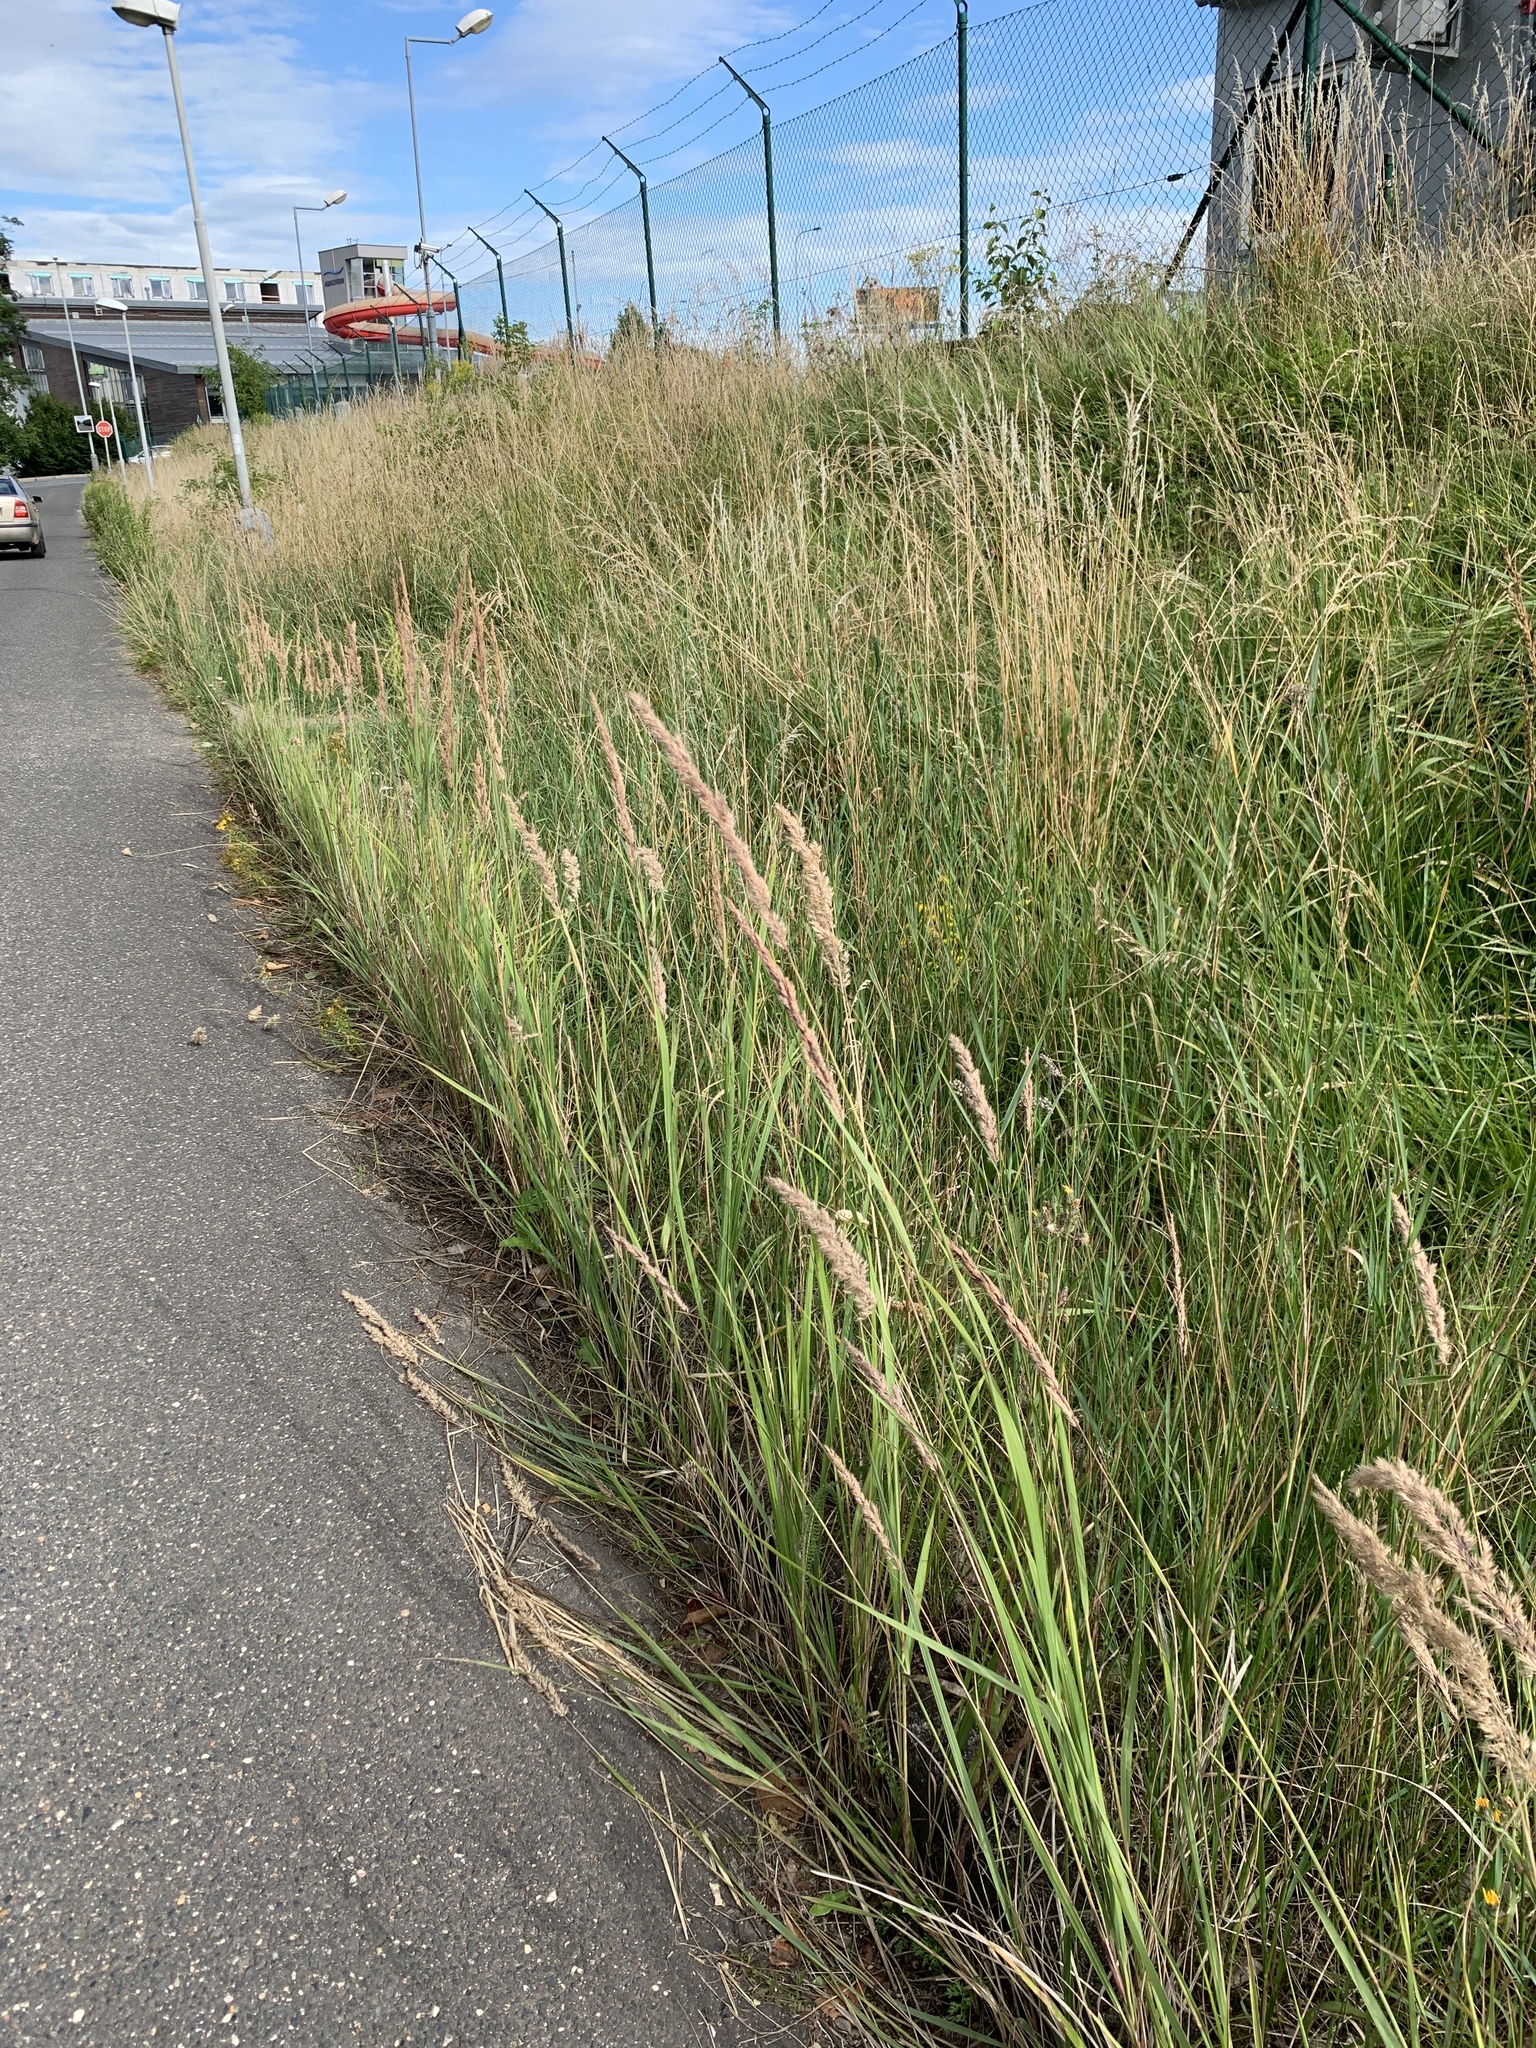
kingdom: Plantae
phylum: Tracheophyta
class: Liliopsida
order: Poales
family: Poaceae
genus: Calamagrostis
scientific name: Calamagrostis epigejos
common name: Wood small-reed
